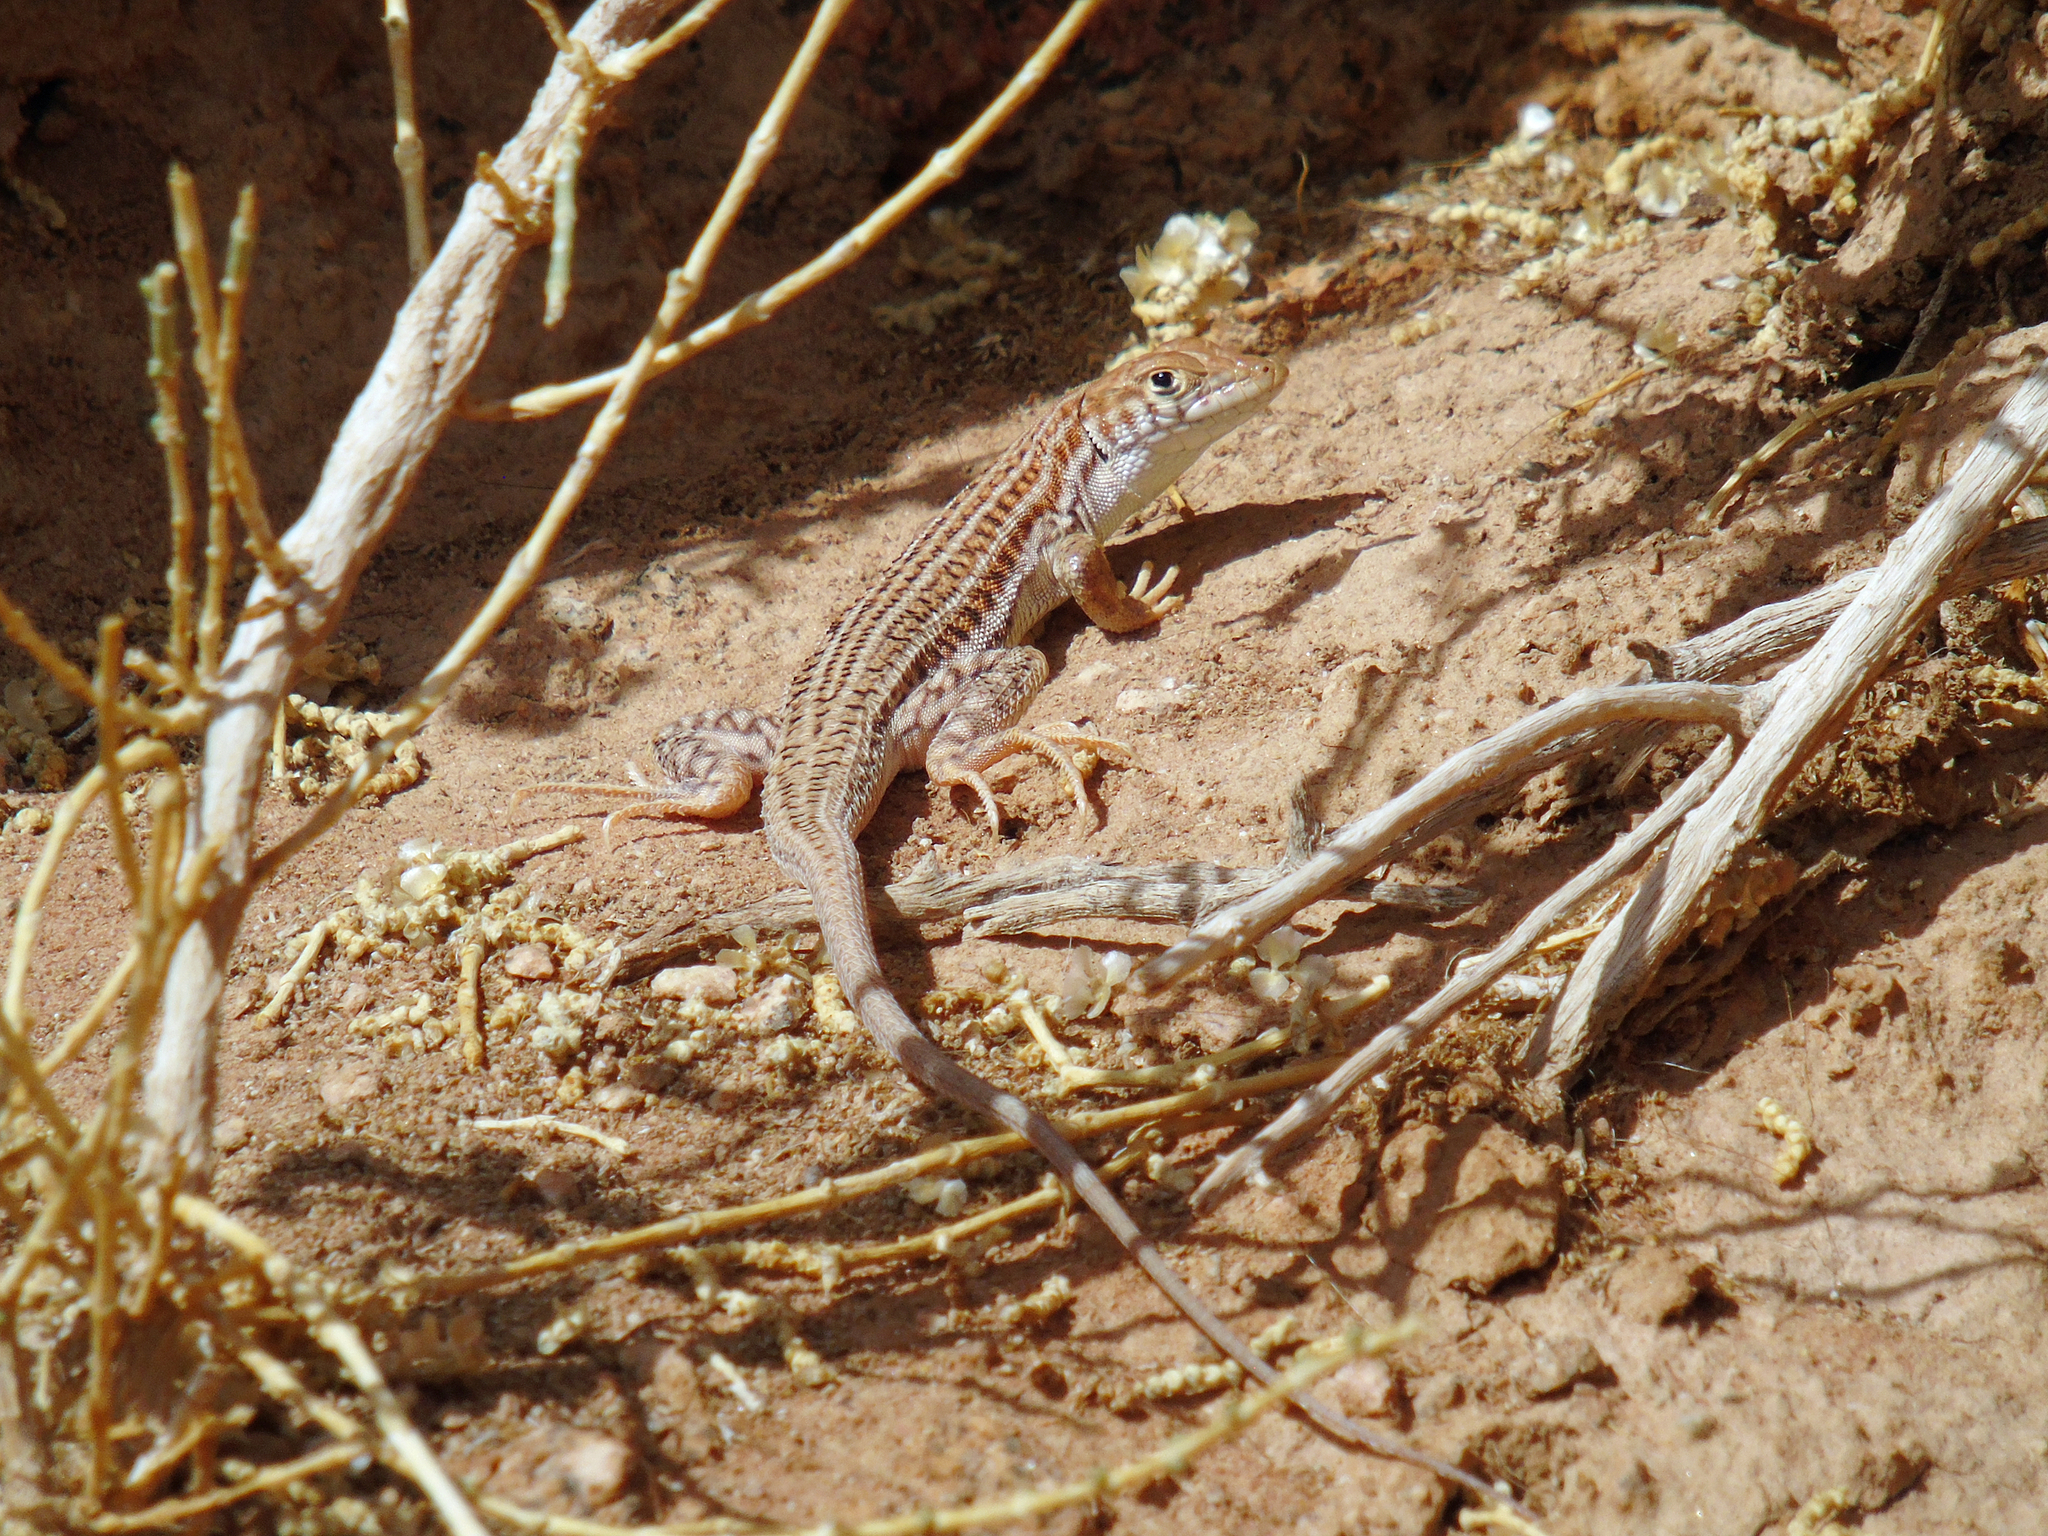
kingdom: Animalia
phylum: Chordata
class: Squamata
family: Lacertidae
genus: Acanthodactylus
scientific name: Acanthodactylus boskianus
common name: Bosc’s fringe-toed lizard
